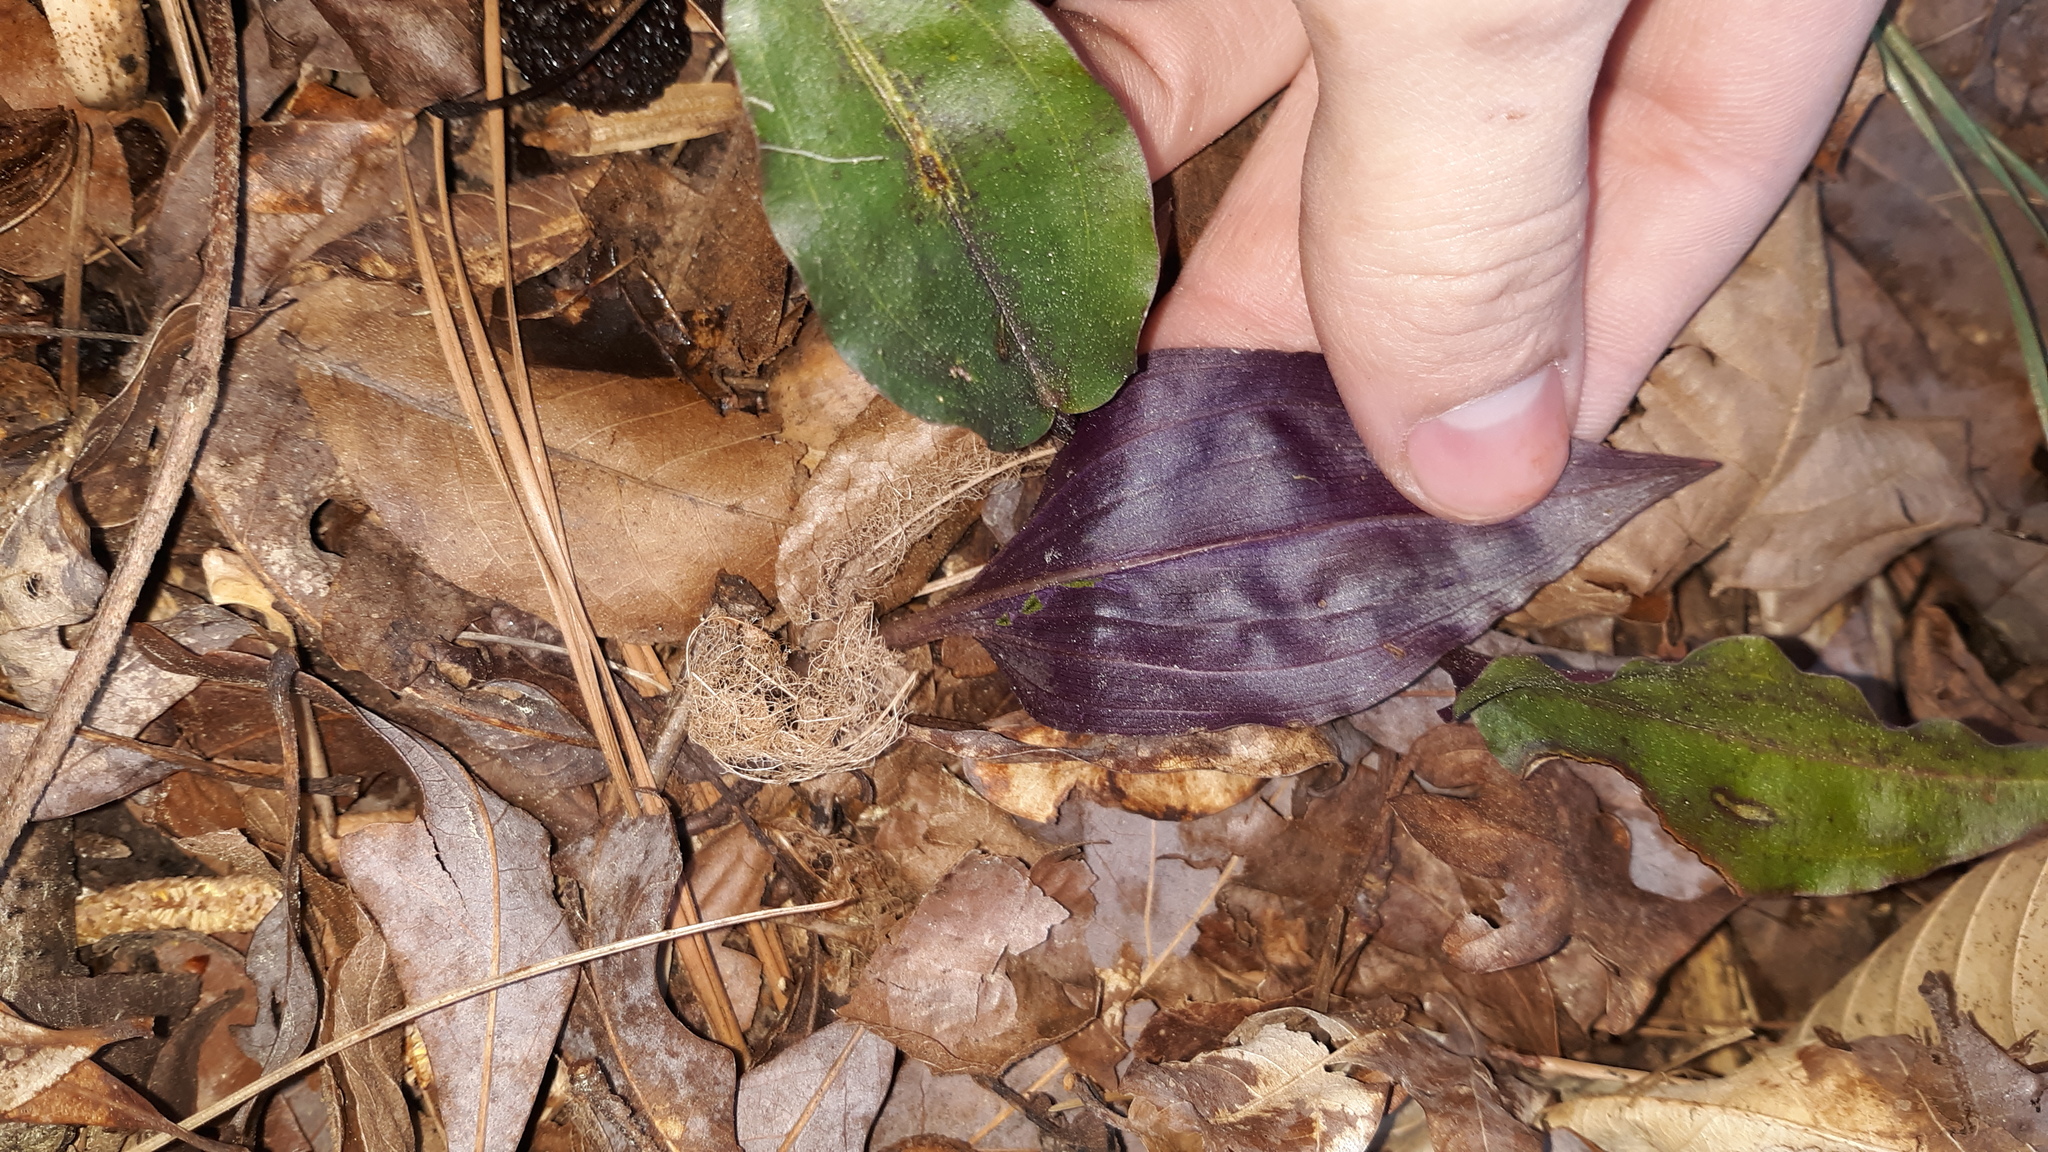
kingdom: Plantae
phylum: Tracheophyta
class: Liliopsida
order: Asparagales
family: Orchidaceae
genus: Tipularia
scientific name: Tipularia discolor
